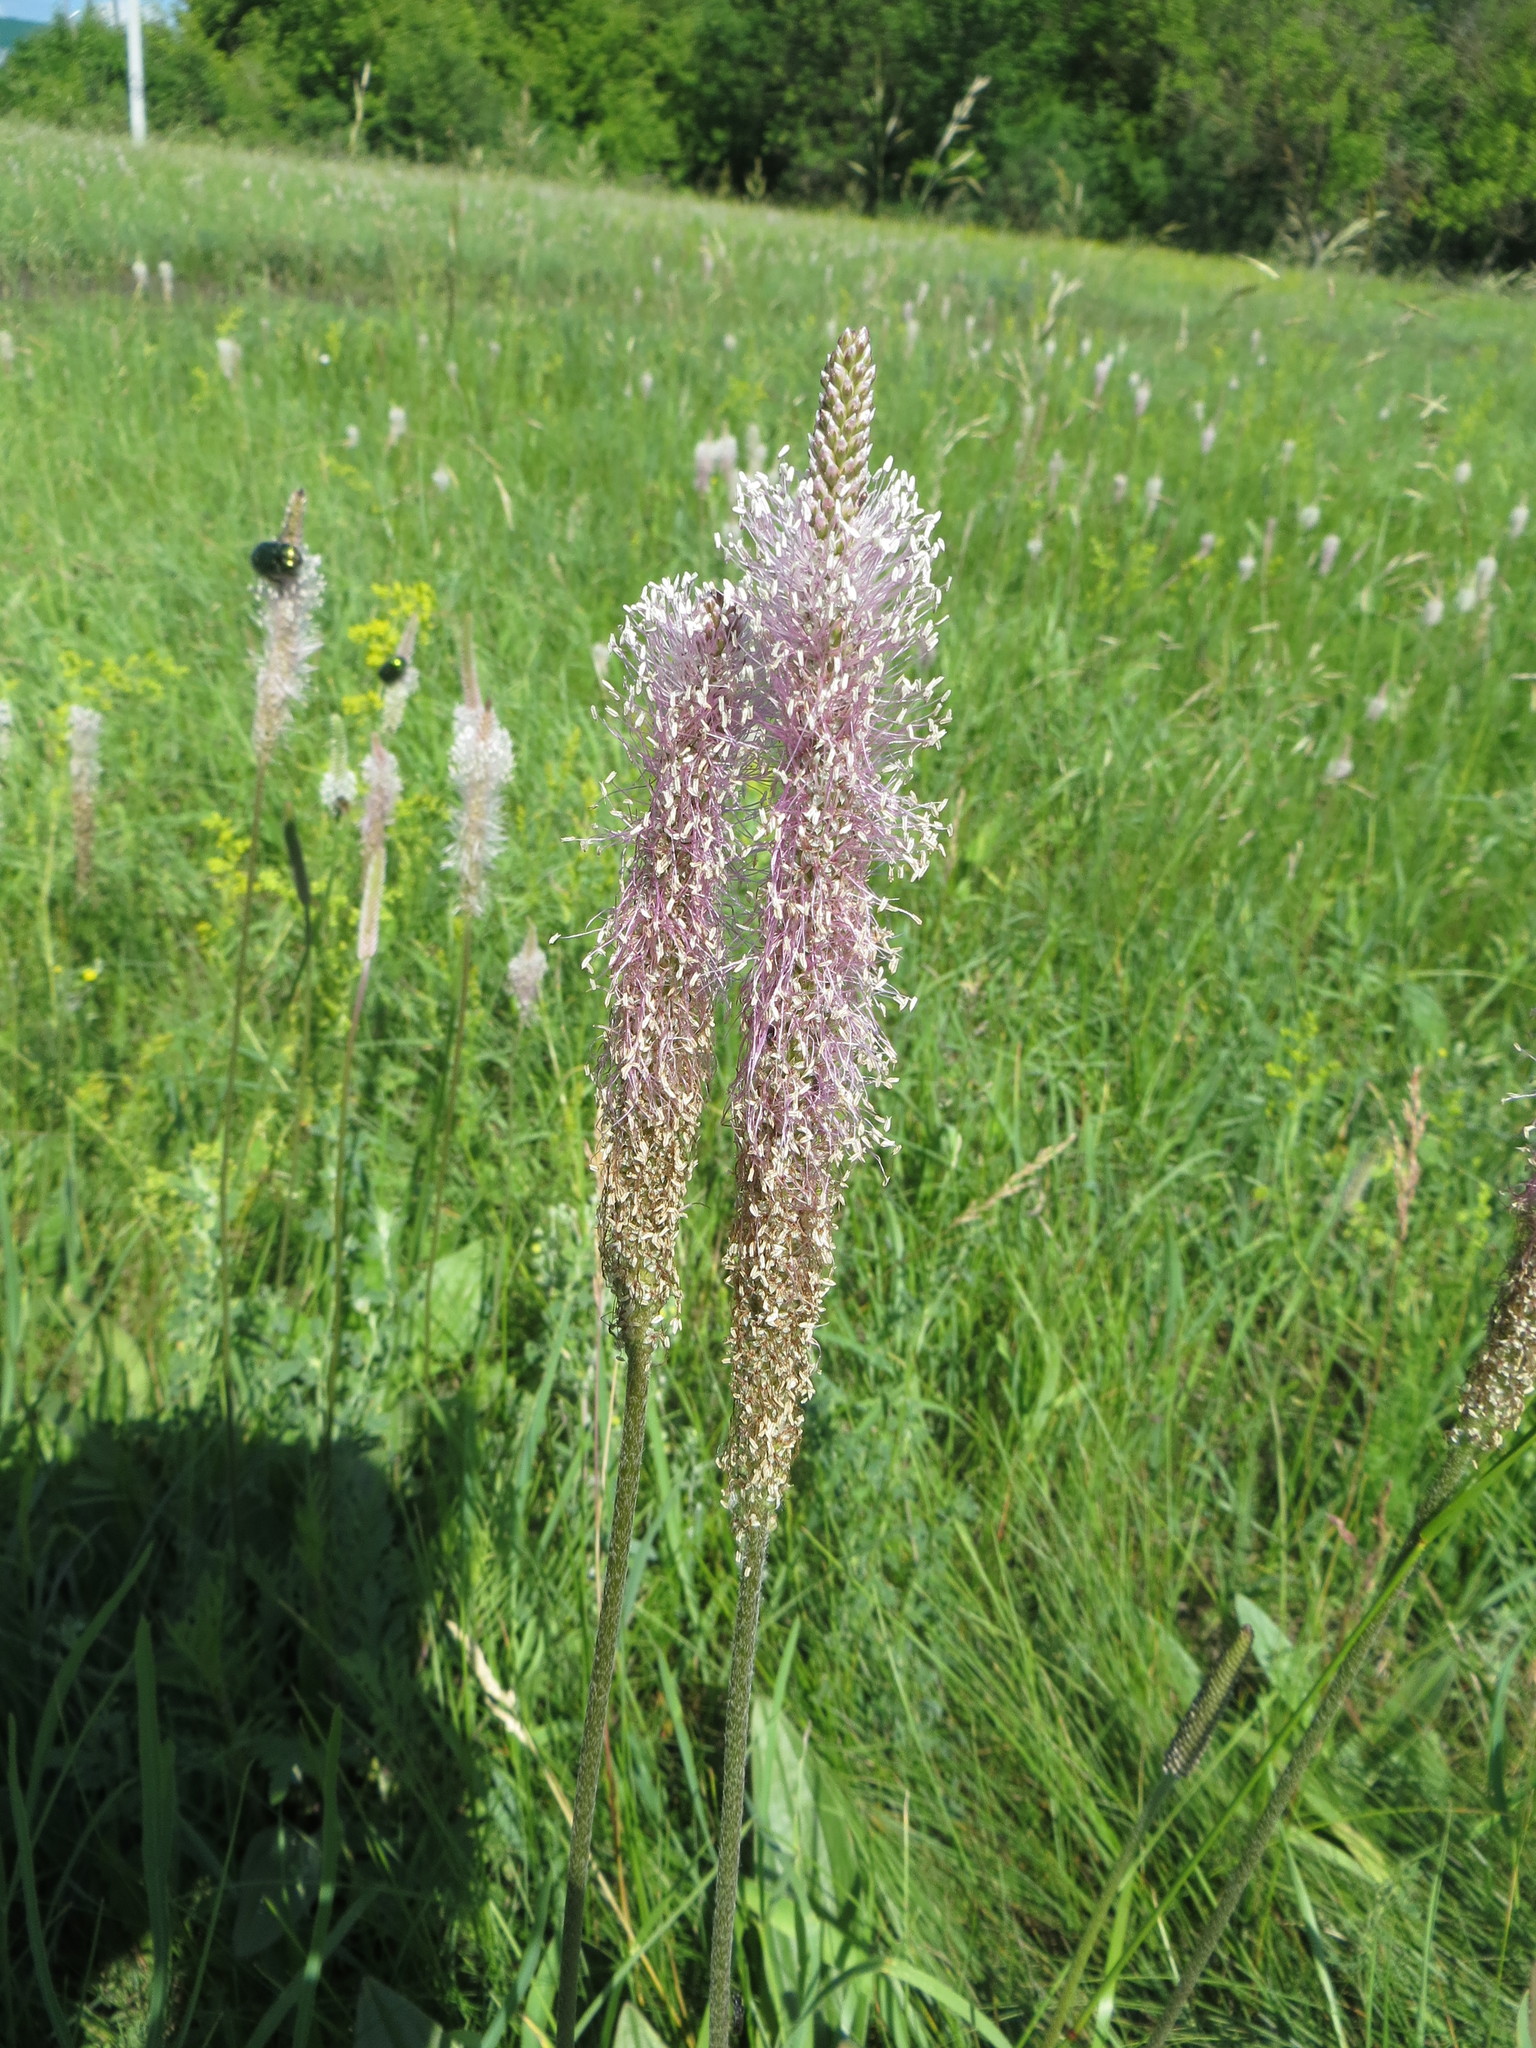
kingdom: Plantae
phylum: Tracheophyta
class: Magnoliopsida
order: Lamiales
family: Plantaginaceae
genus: Plantago
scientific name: Plantago urvillei
